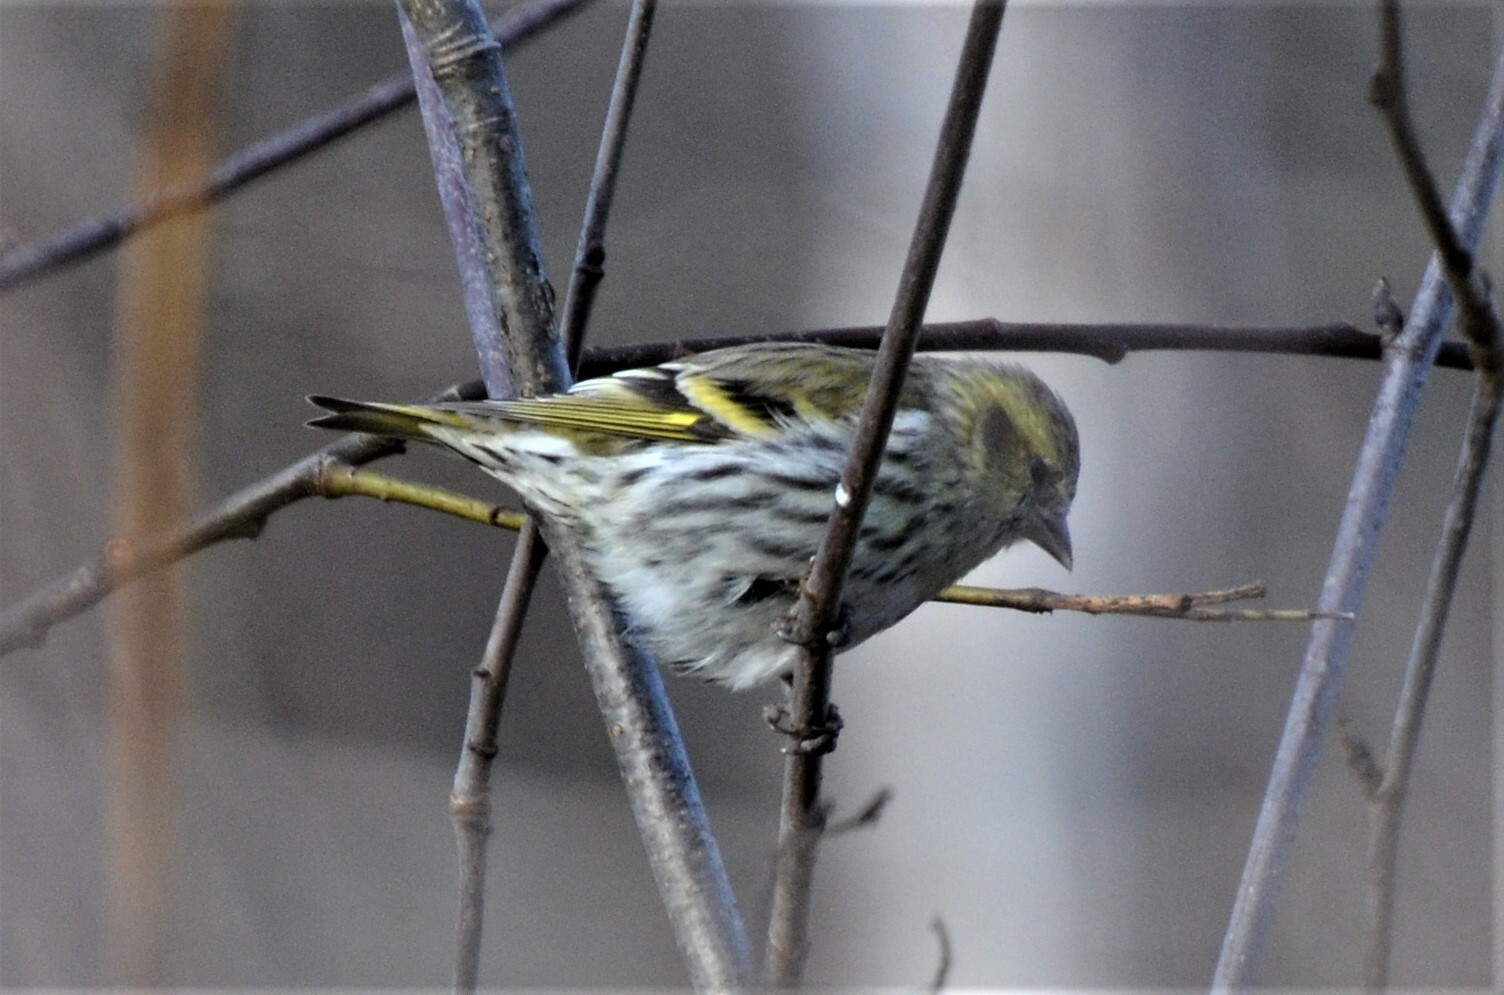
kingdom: Animalia
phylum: Chordata
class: Aves
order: Passeriformes
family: Fringillidae
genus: Spinus
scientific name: Spinus spinus
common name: Eurasian siskin
